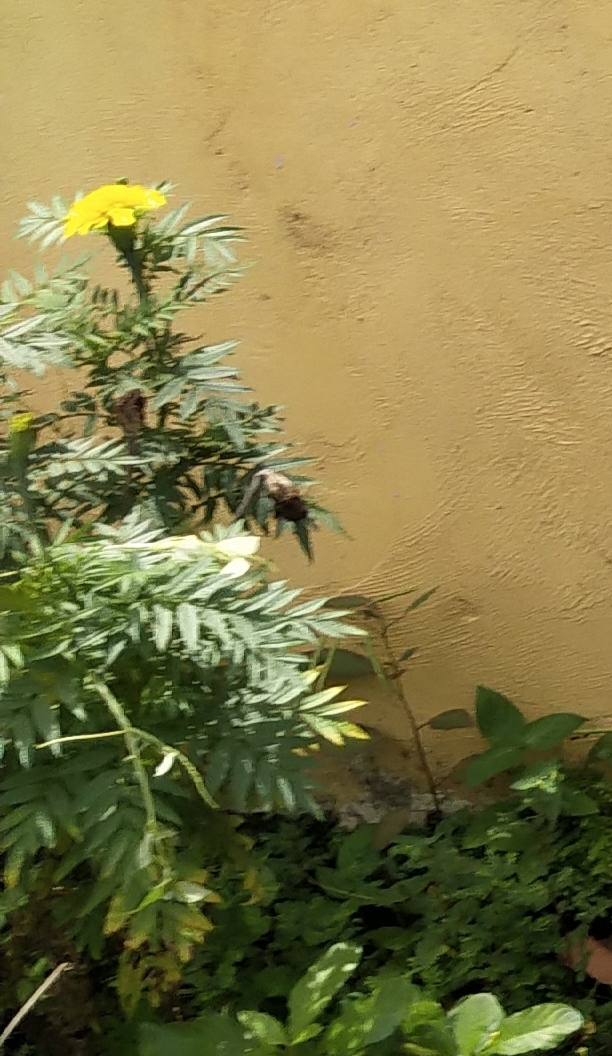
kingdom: Plantae
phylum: Tracheophyta
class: Magnoliopsida
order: Asterales
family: Asteraceae
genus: Tagetes
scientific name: Tagetes erecta
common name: African marigold
